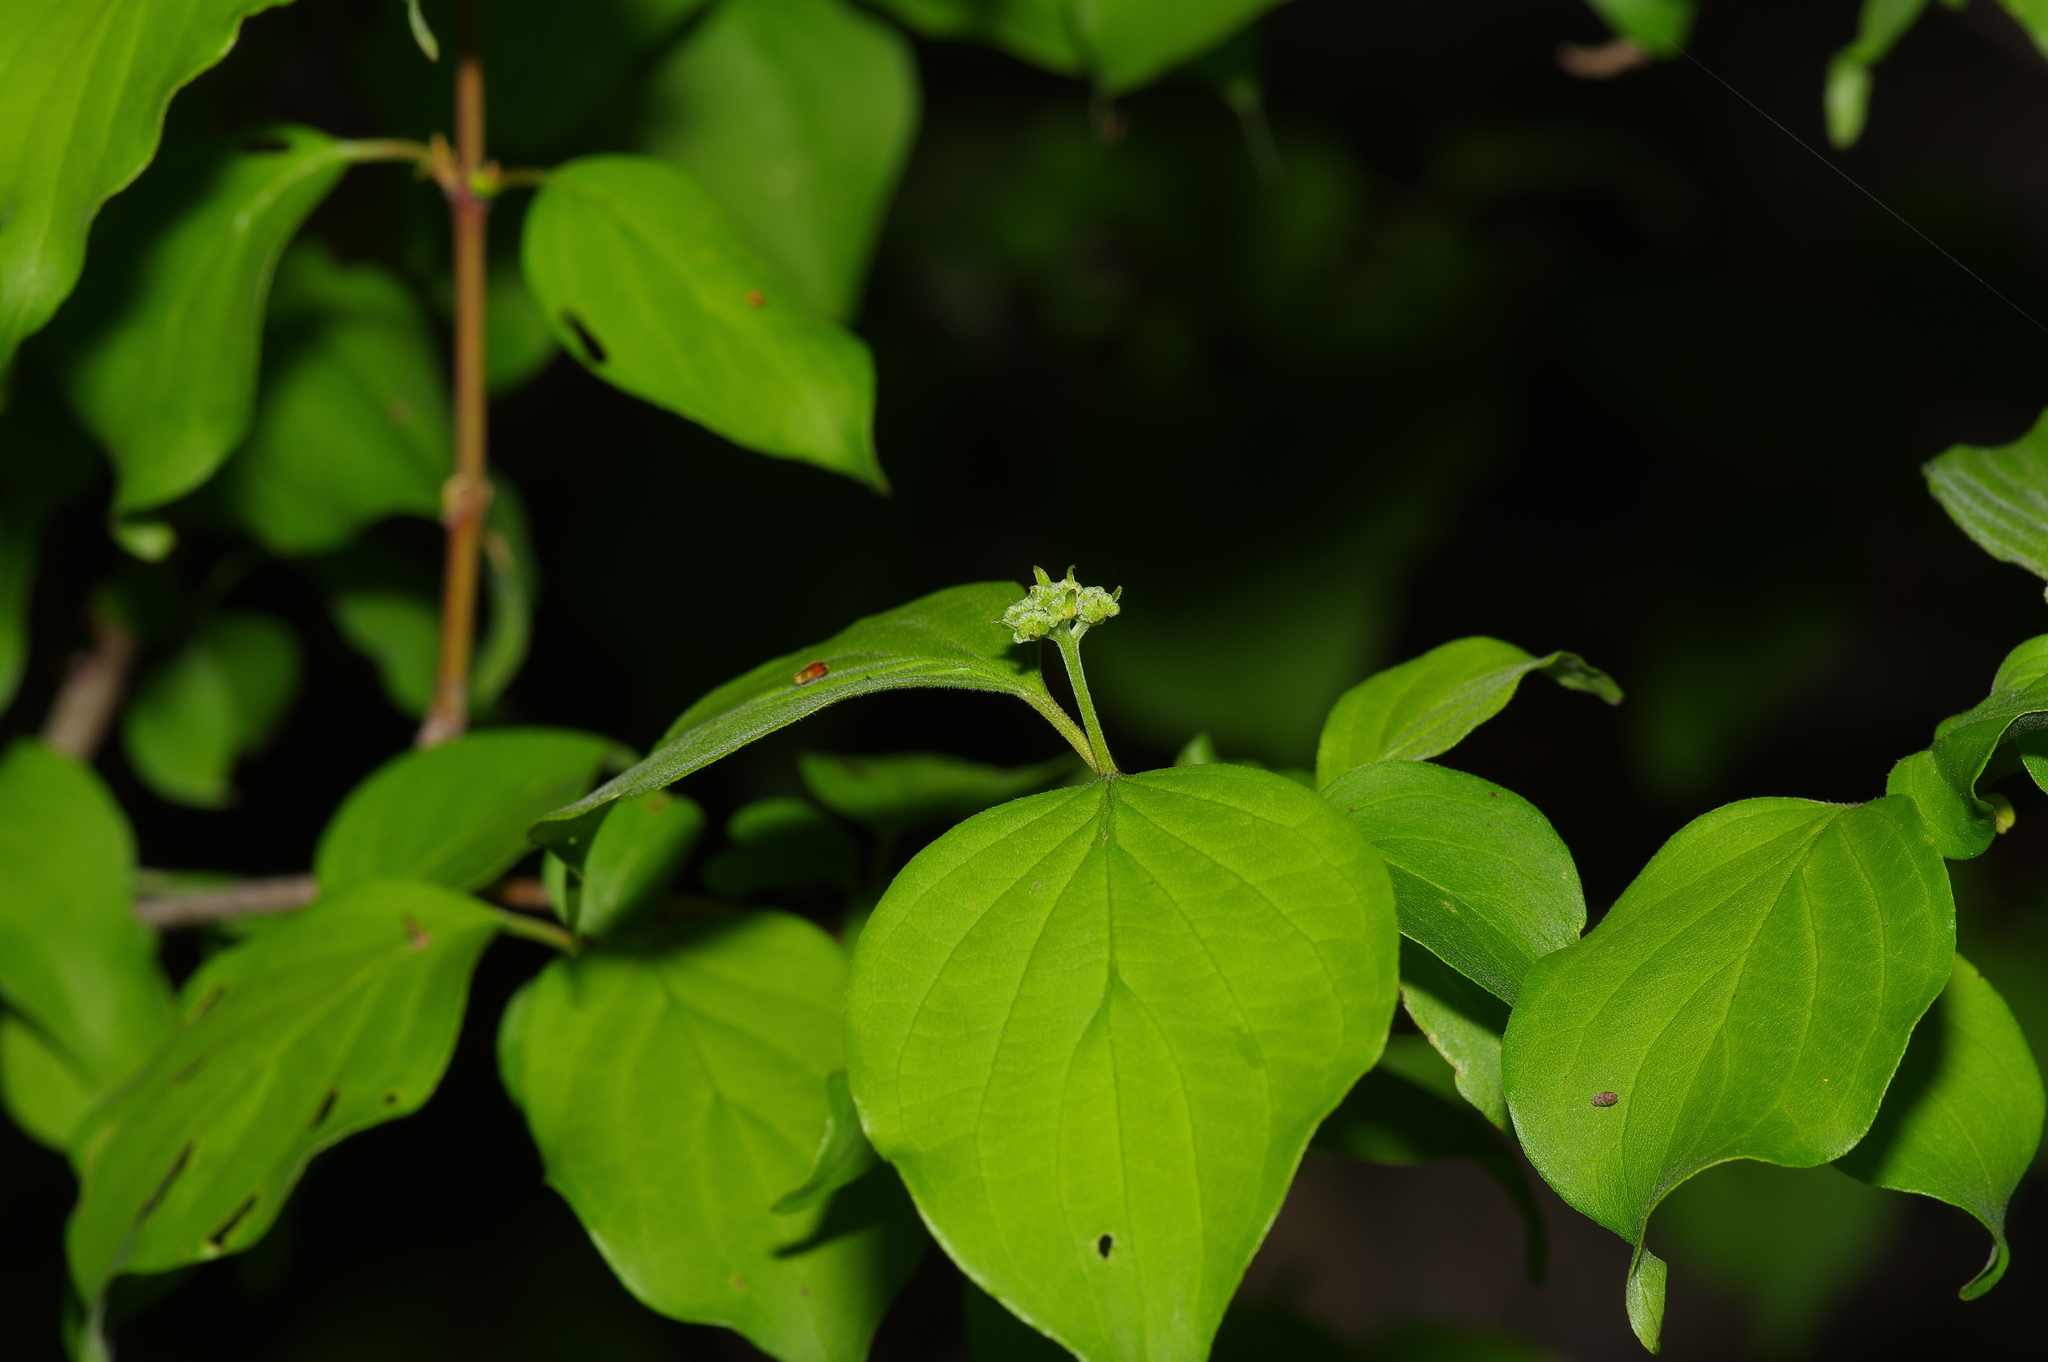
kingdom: Plantae
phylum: Tracheophyta
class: Magnoliopsida
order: Cornales
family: Cornaceae
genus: Cornus
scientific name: Cornus drummondii
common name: Rough-leaf dogwood
